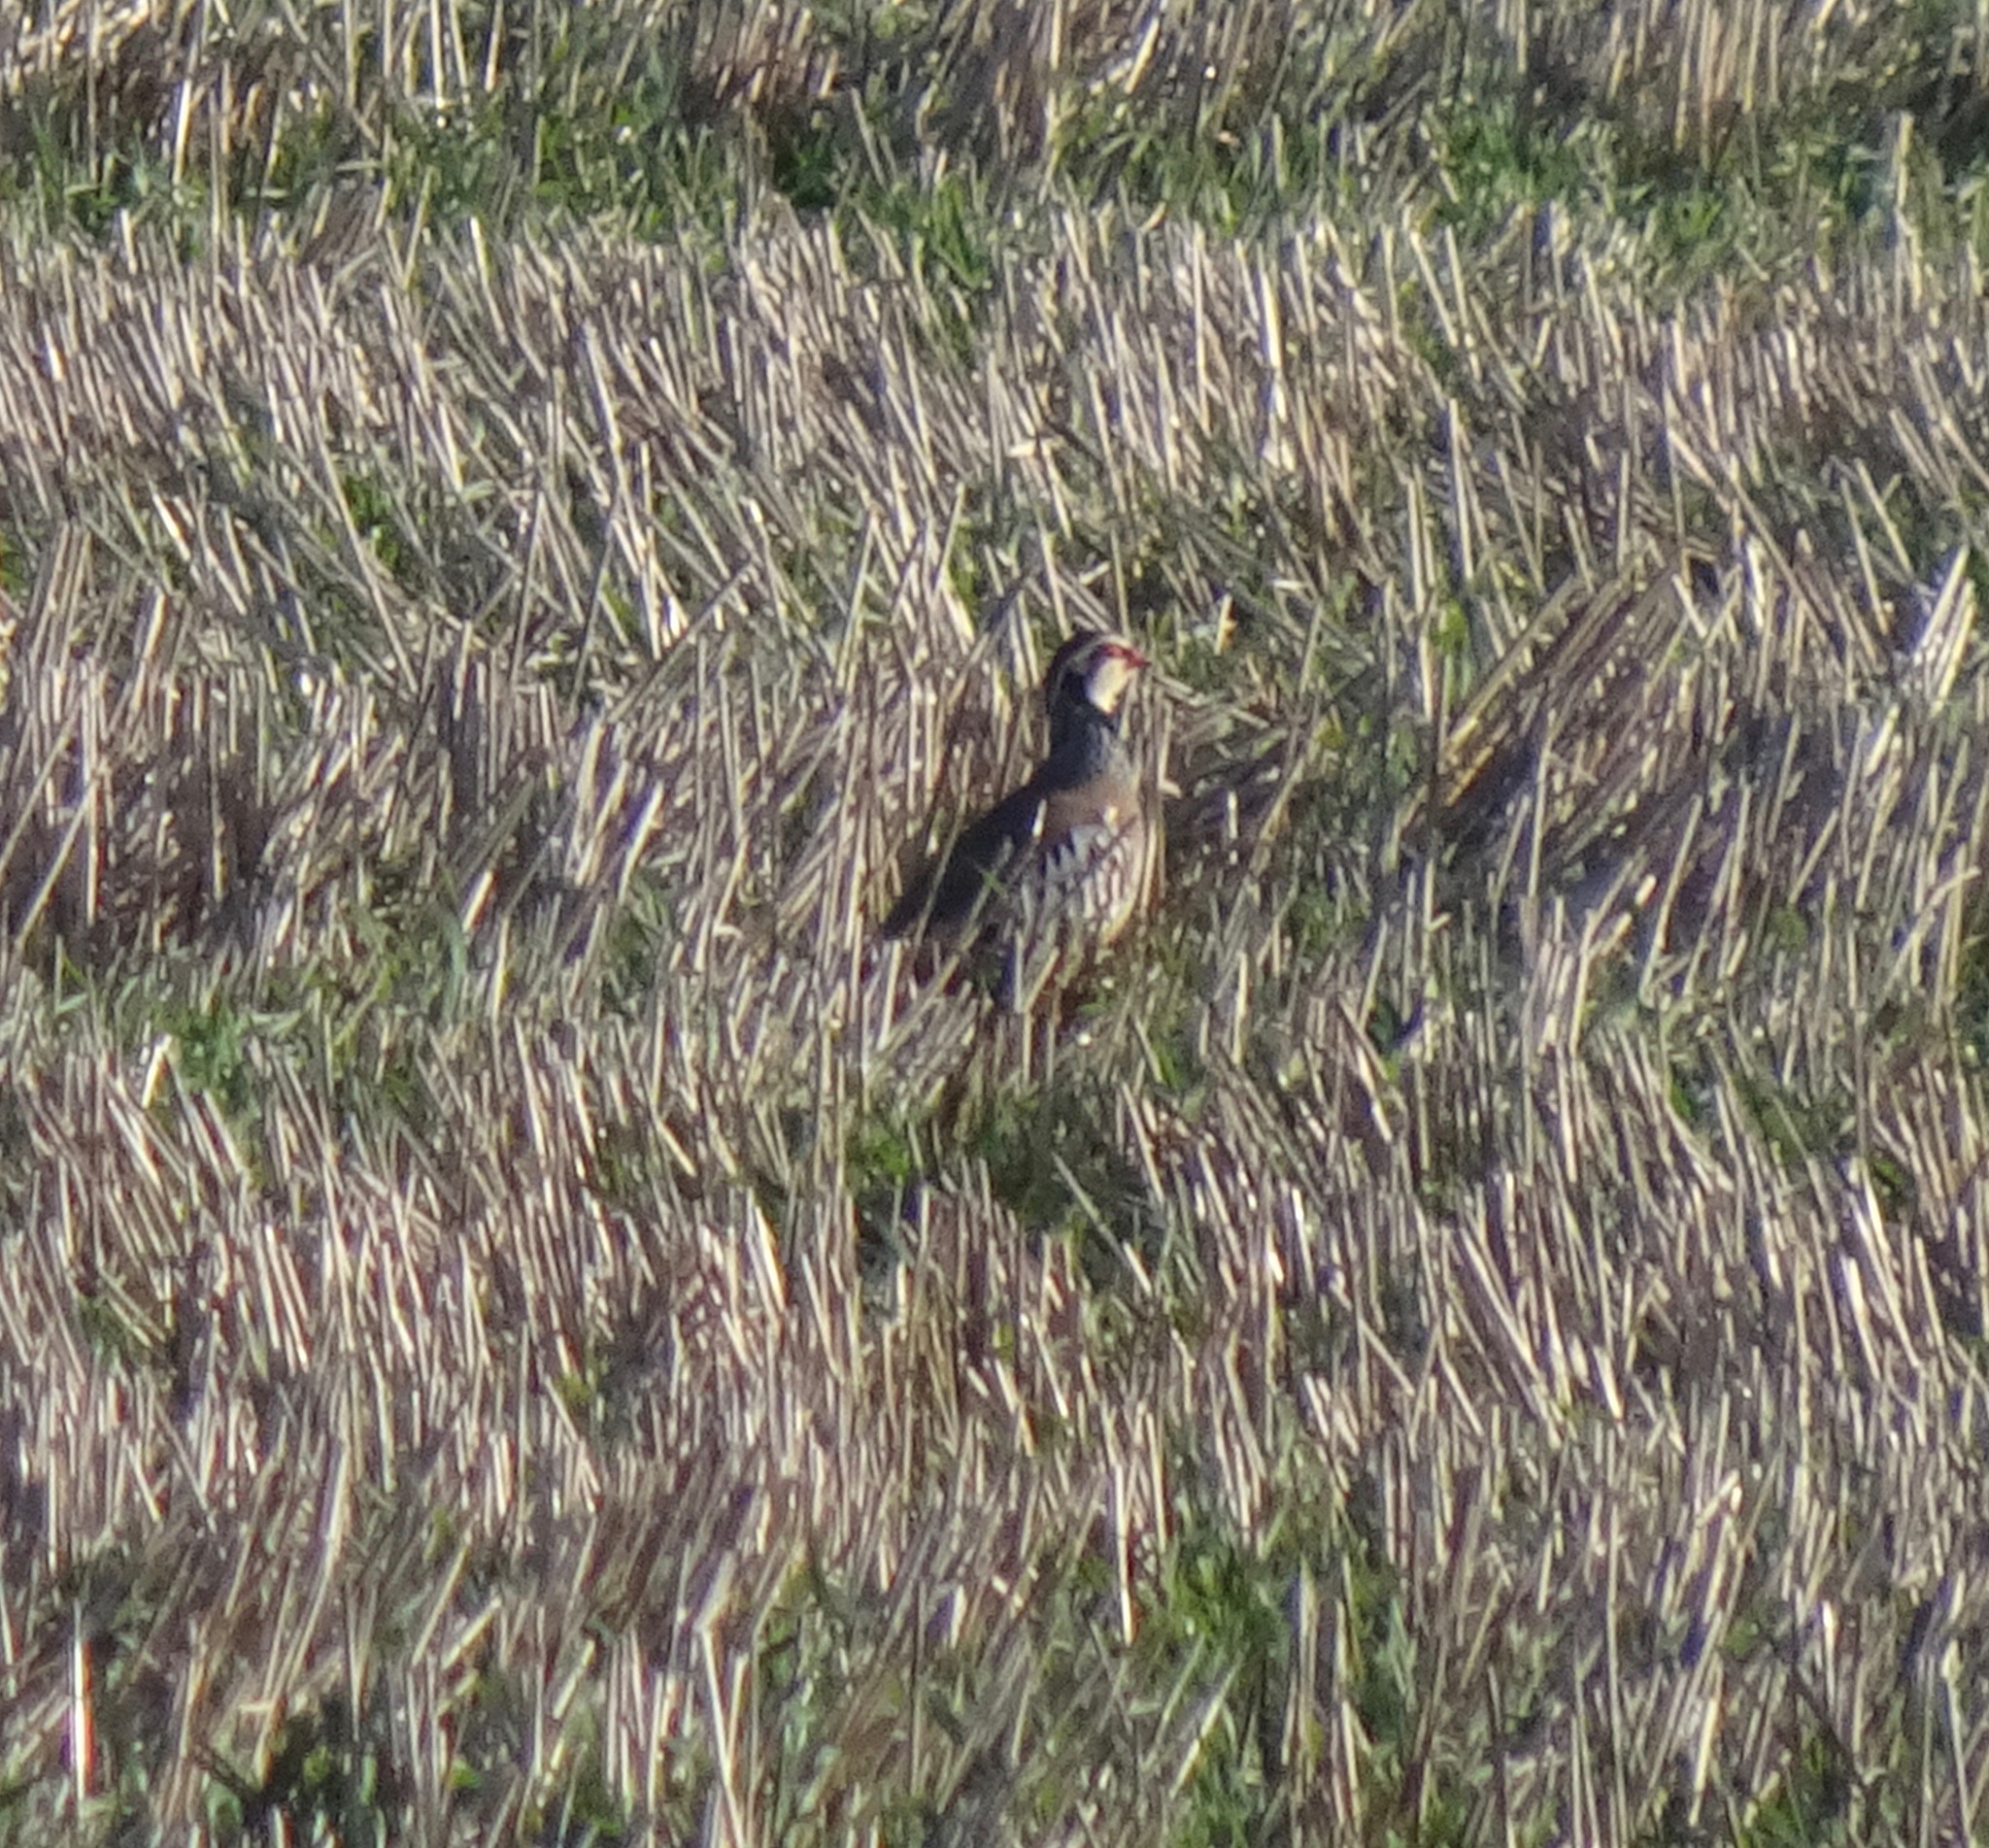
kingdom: Animalia
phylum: Chordata
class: Aves
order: Galliformes
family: Phasianidae
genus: Alectoris
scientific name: Alectoris rufa
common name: Red-legged partridge
